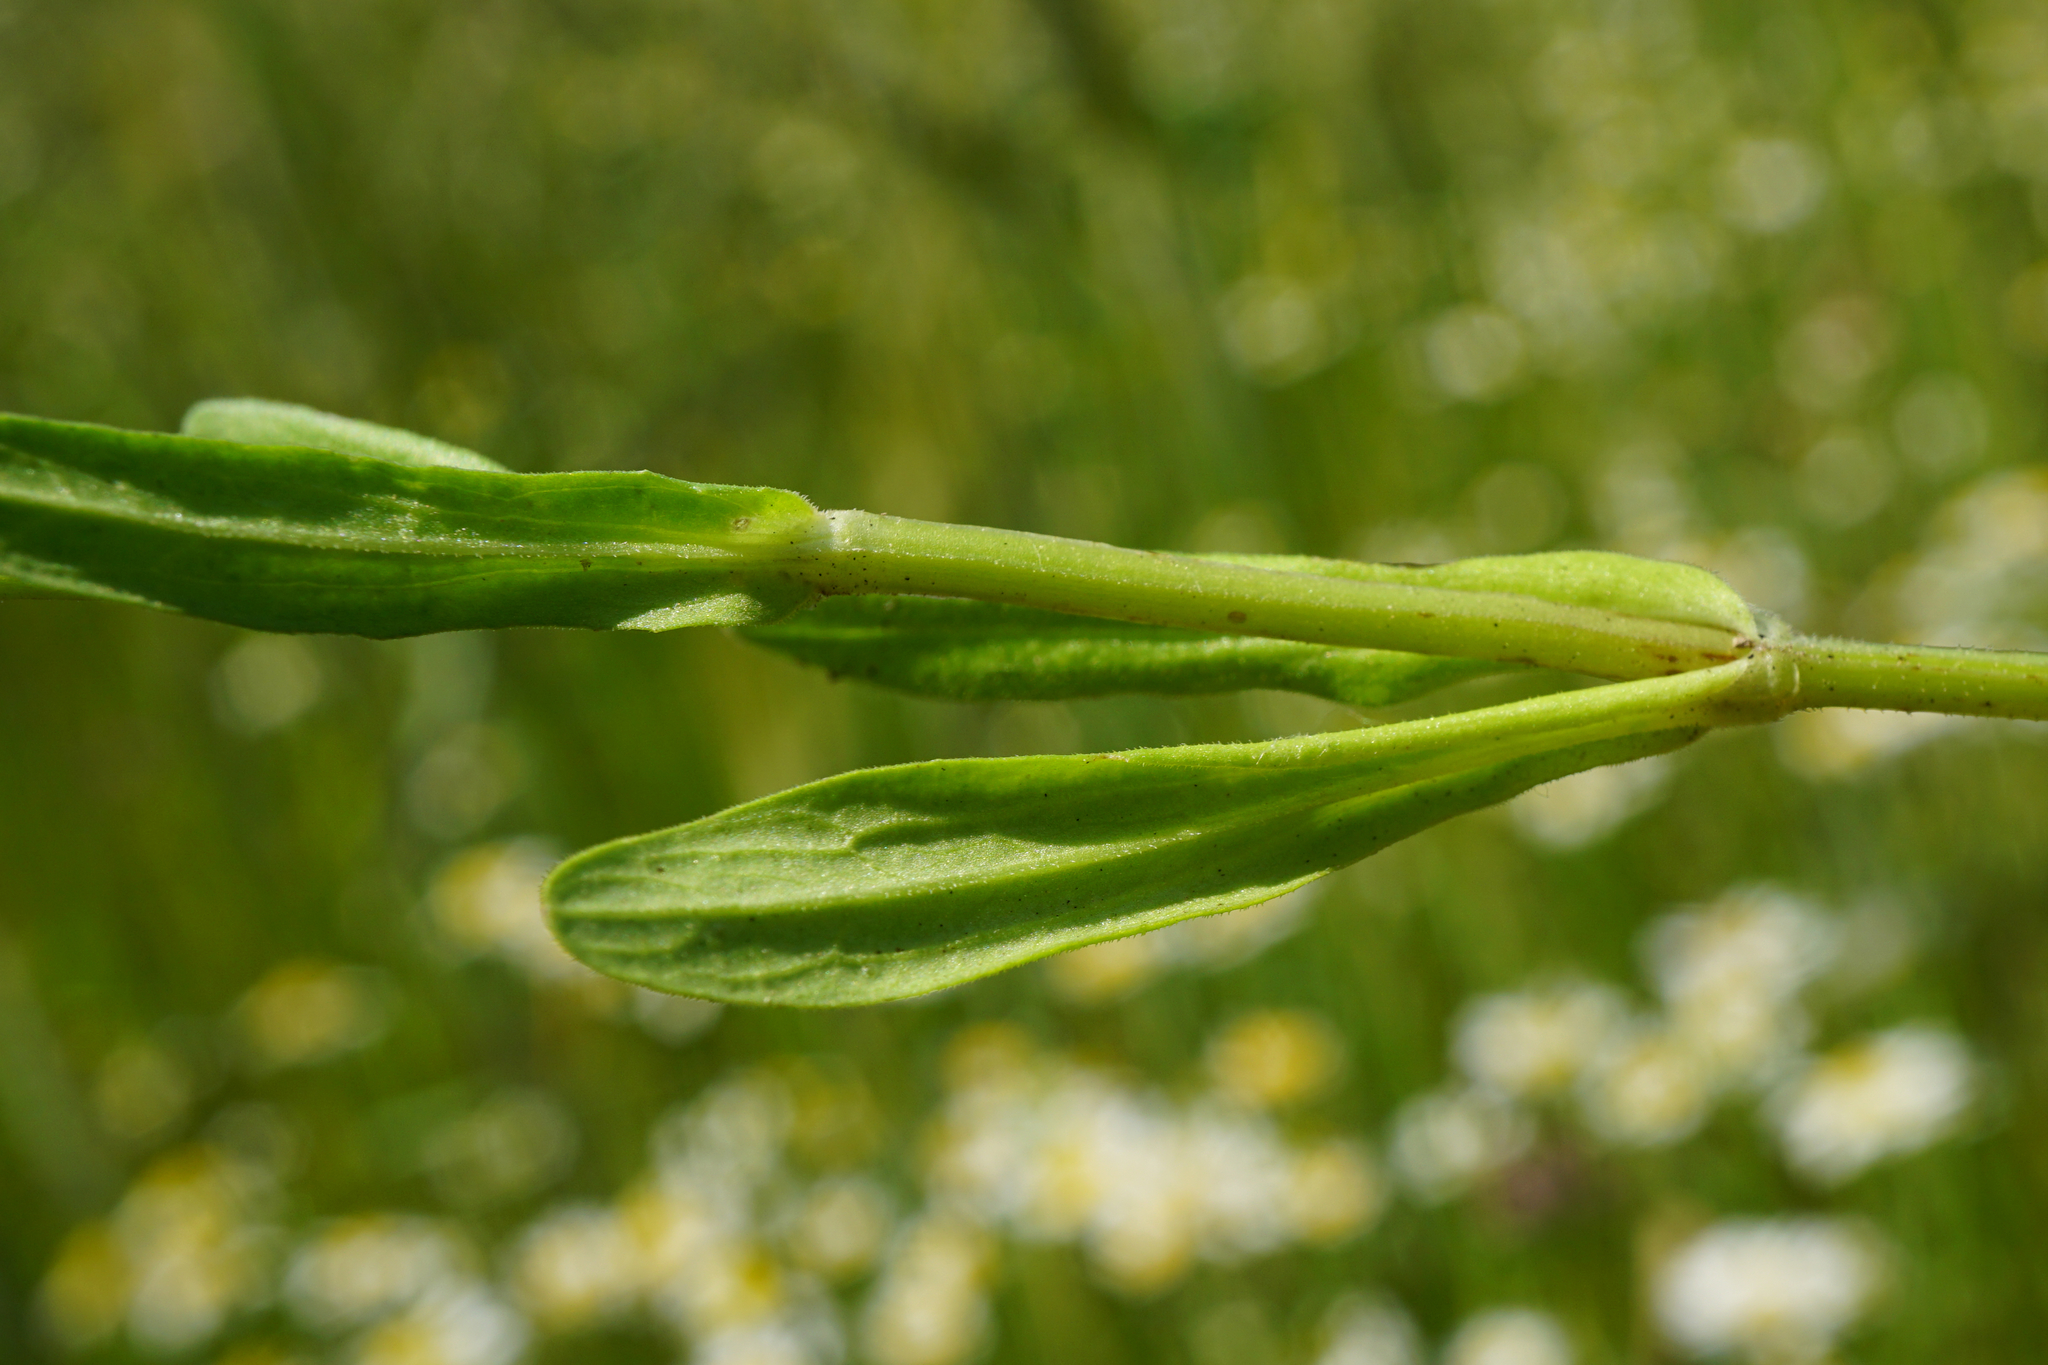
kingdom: Plantae
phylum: Tracheophyta
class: Magnoliopsida
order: Dipsacales
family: Caprifoliaceae
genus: Valerianella
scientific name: Valerianella dentata
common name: Narrow-fruited cornsalad
